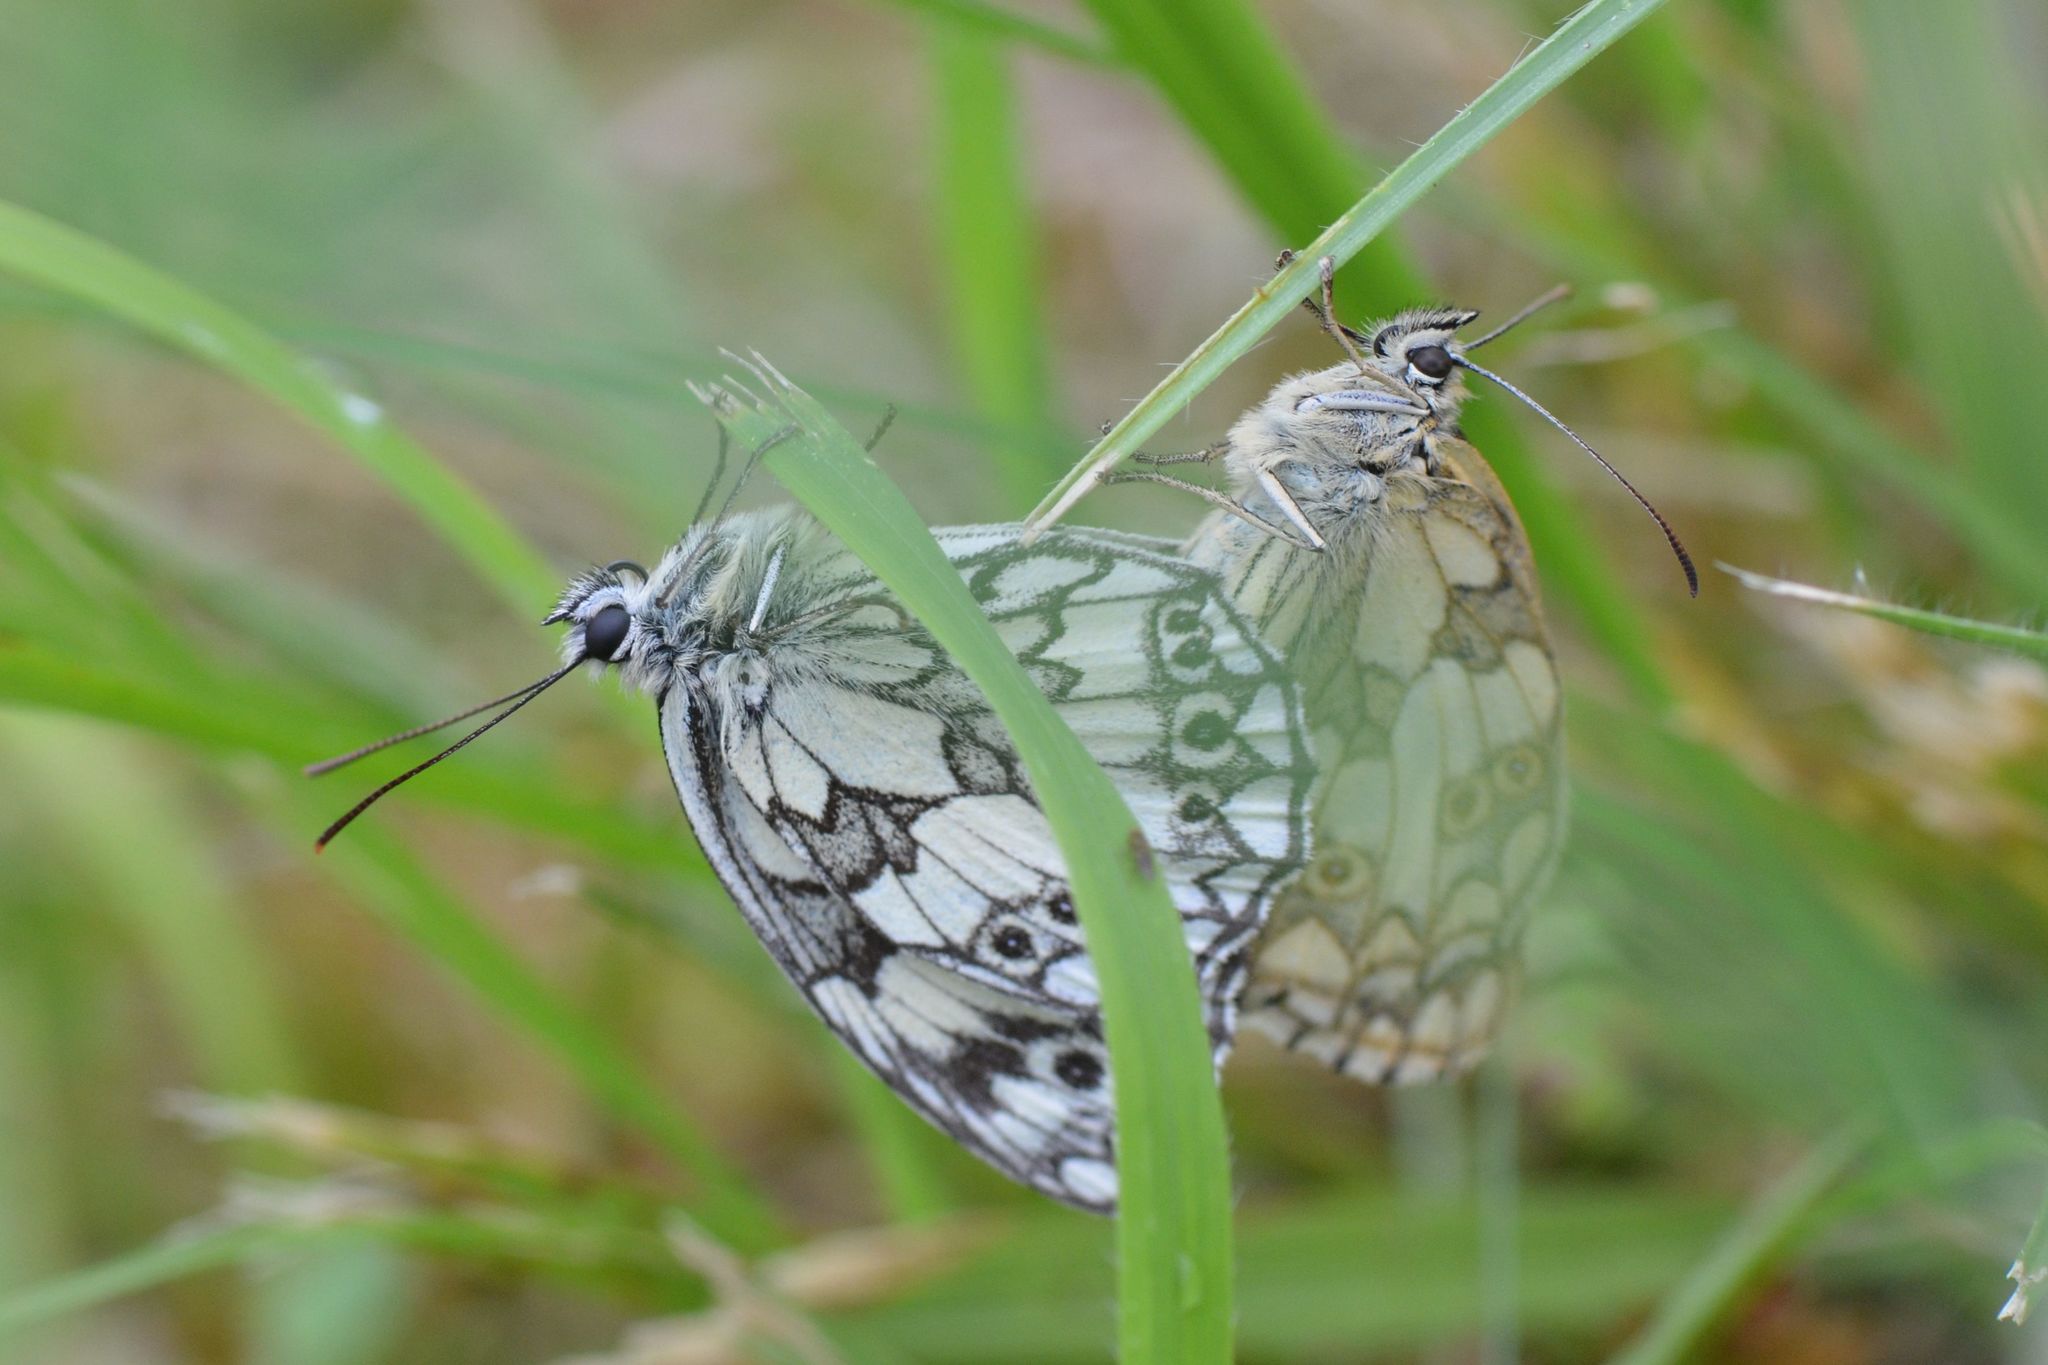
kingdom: Animalia
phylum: Arthropoda
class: Insecta
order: Lepidoptera
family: Nymphalidae
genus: Melanargia
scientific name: Melanargia galathea
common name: Marbled white
